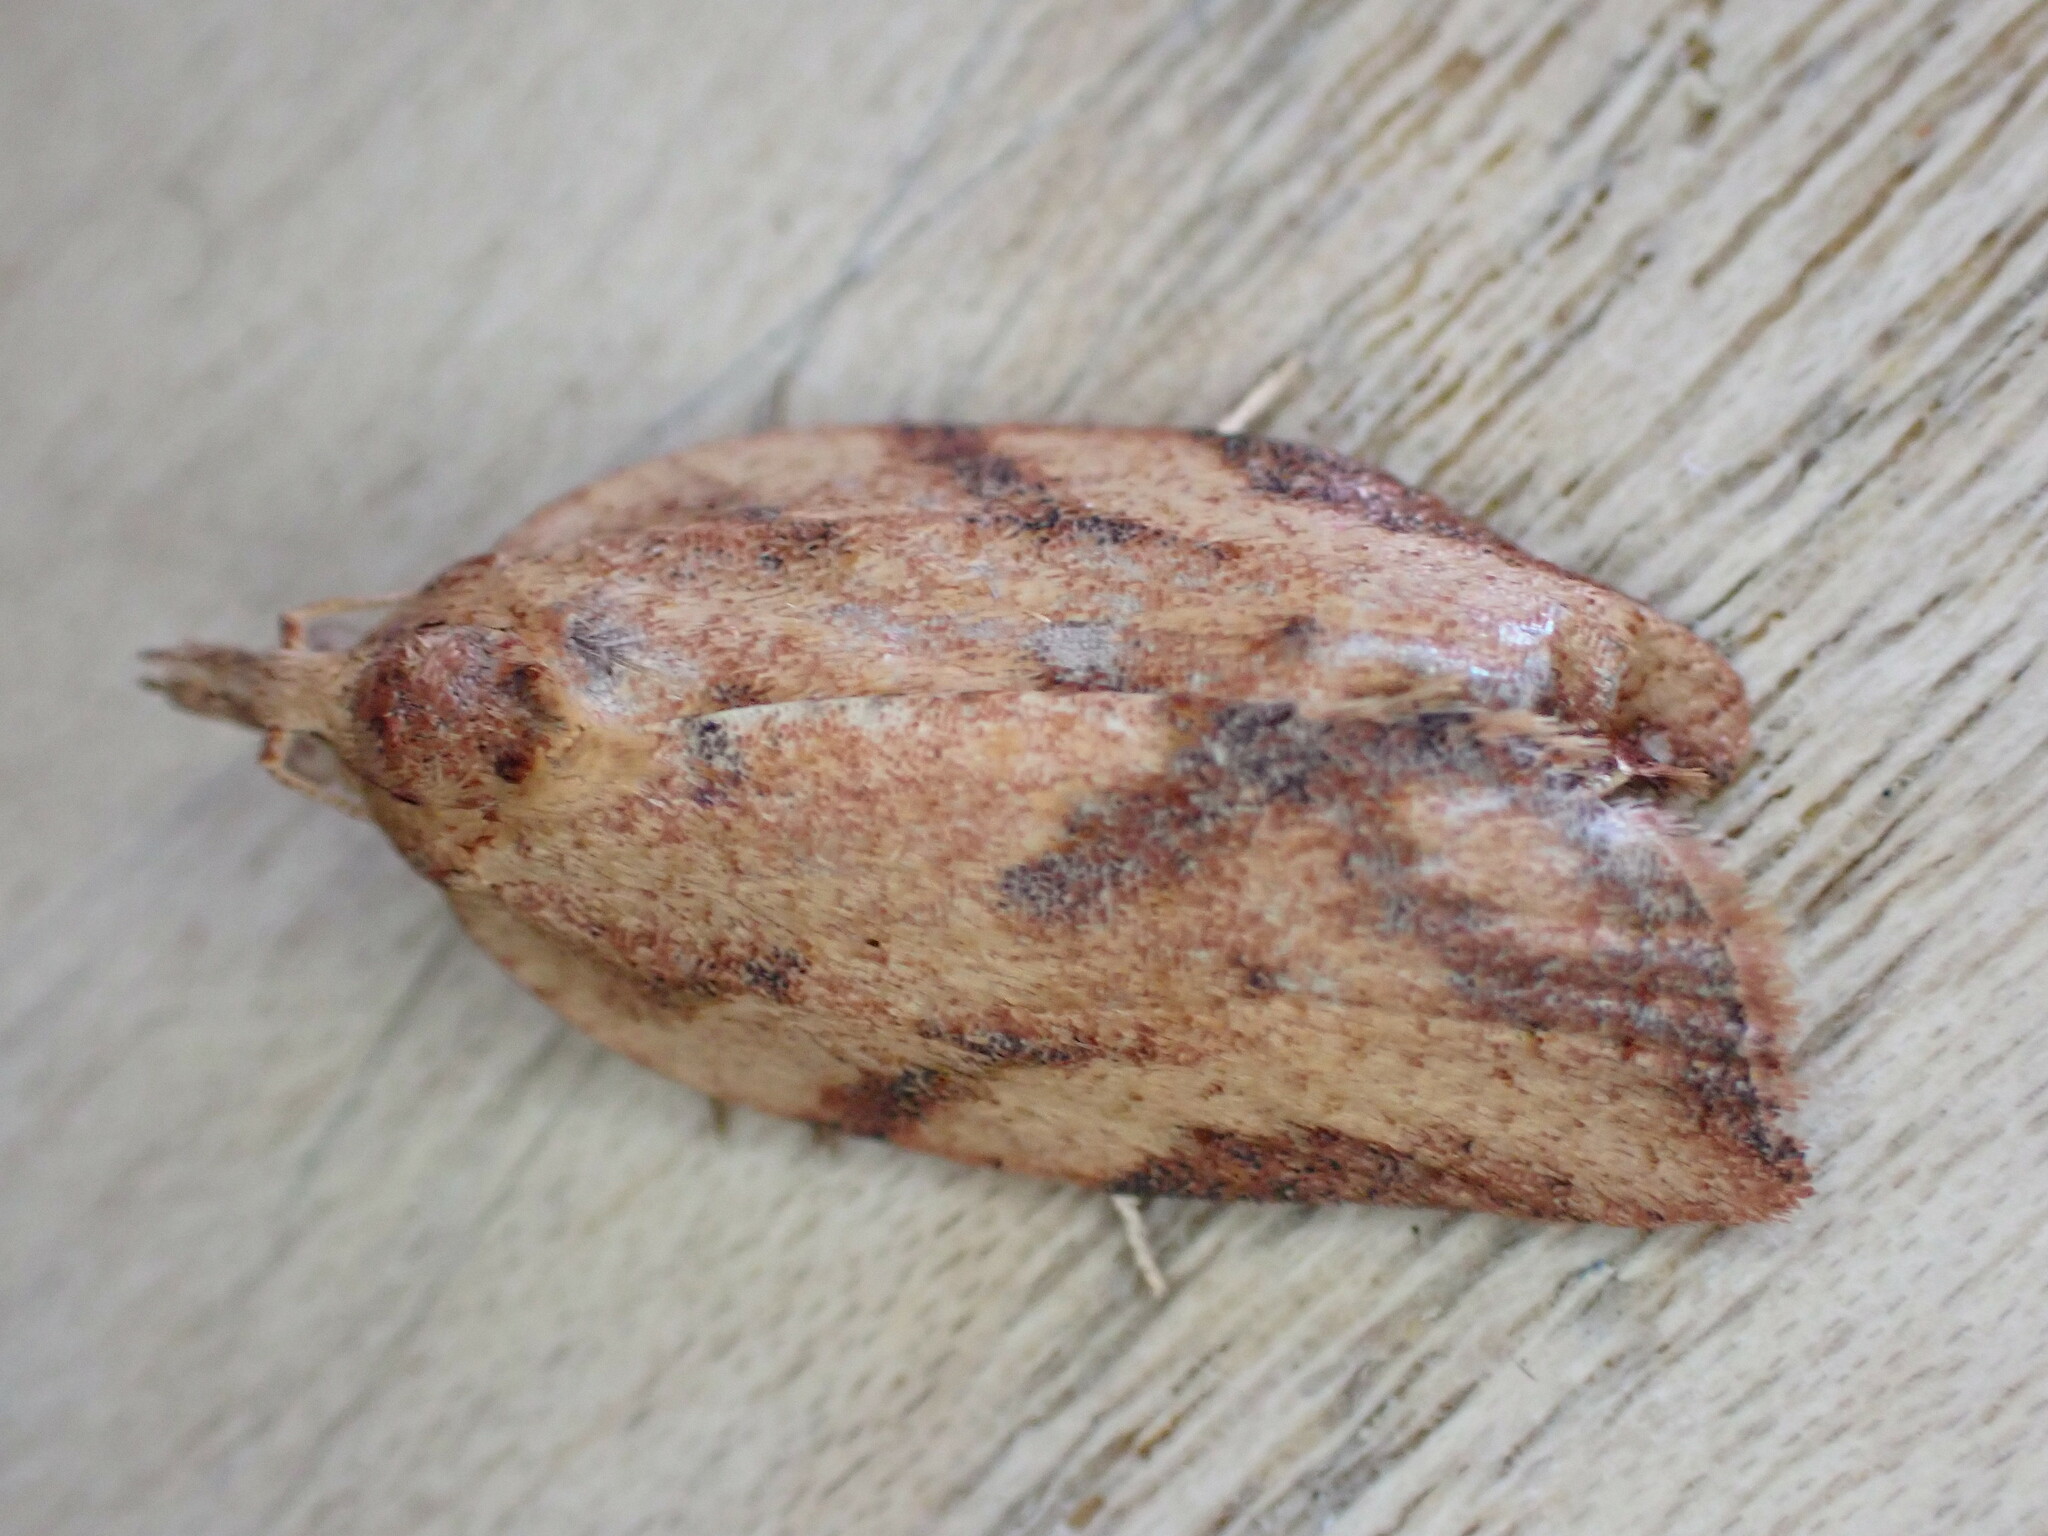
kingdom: Animalia
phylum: Arthropoda
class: Insecta
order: Lepidoptera
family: Tortricidae
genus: Epiphyas
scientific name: Epiphyas postvittana
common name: Light brown apple moth
